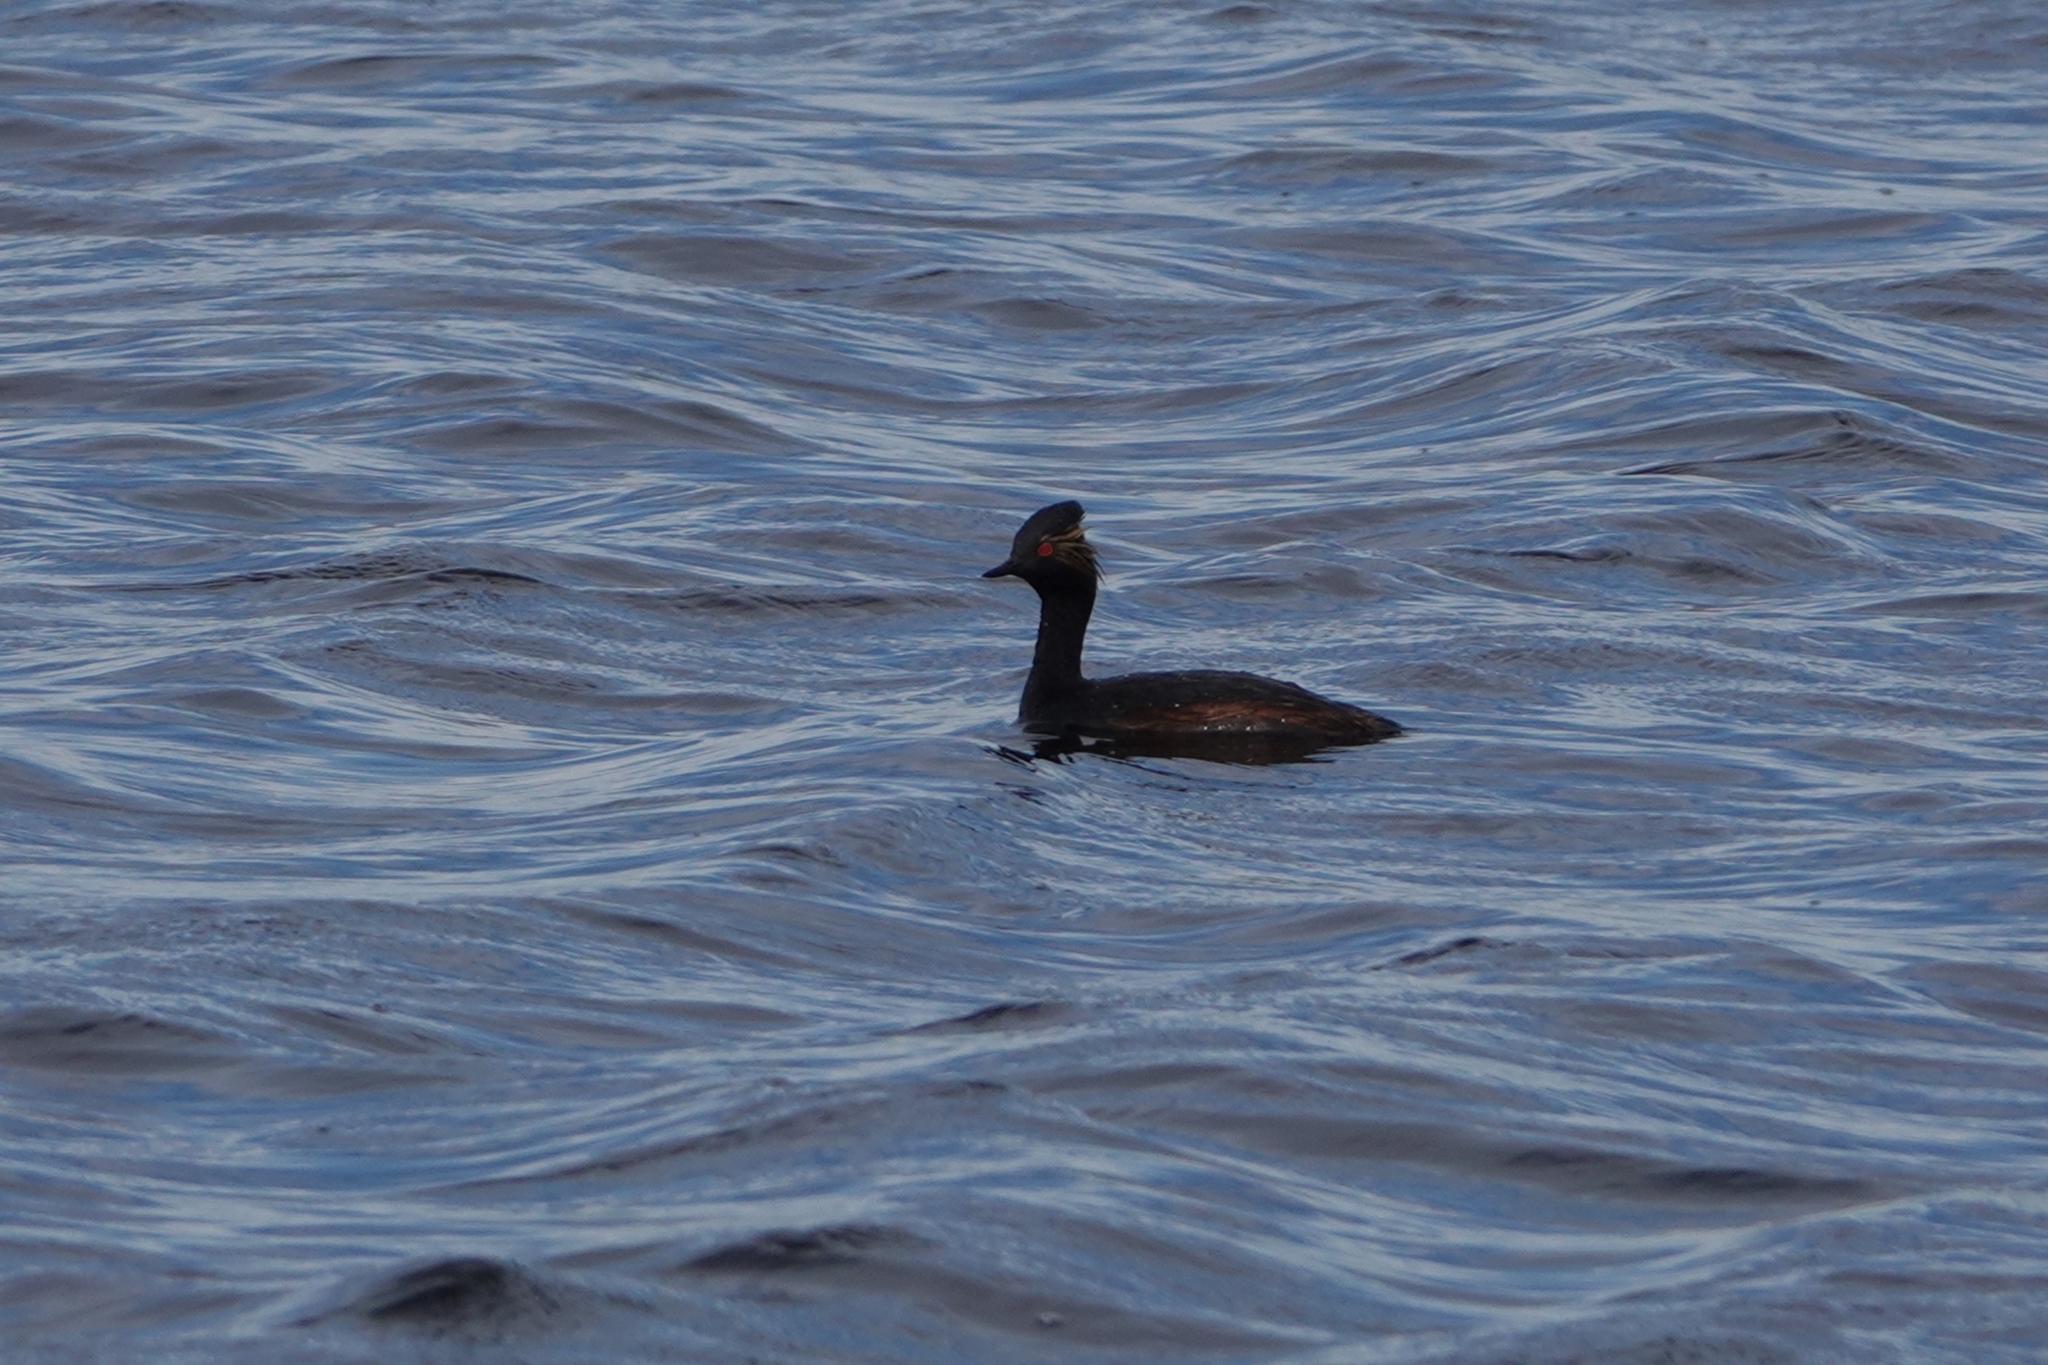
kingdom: Animalia
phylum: Chordata
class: Aves
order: Podicipediformes
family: Podicipedidae
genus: Podiceps
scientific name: Podiceps nigricollis
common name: Black-necked grebe
